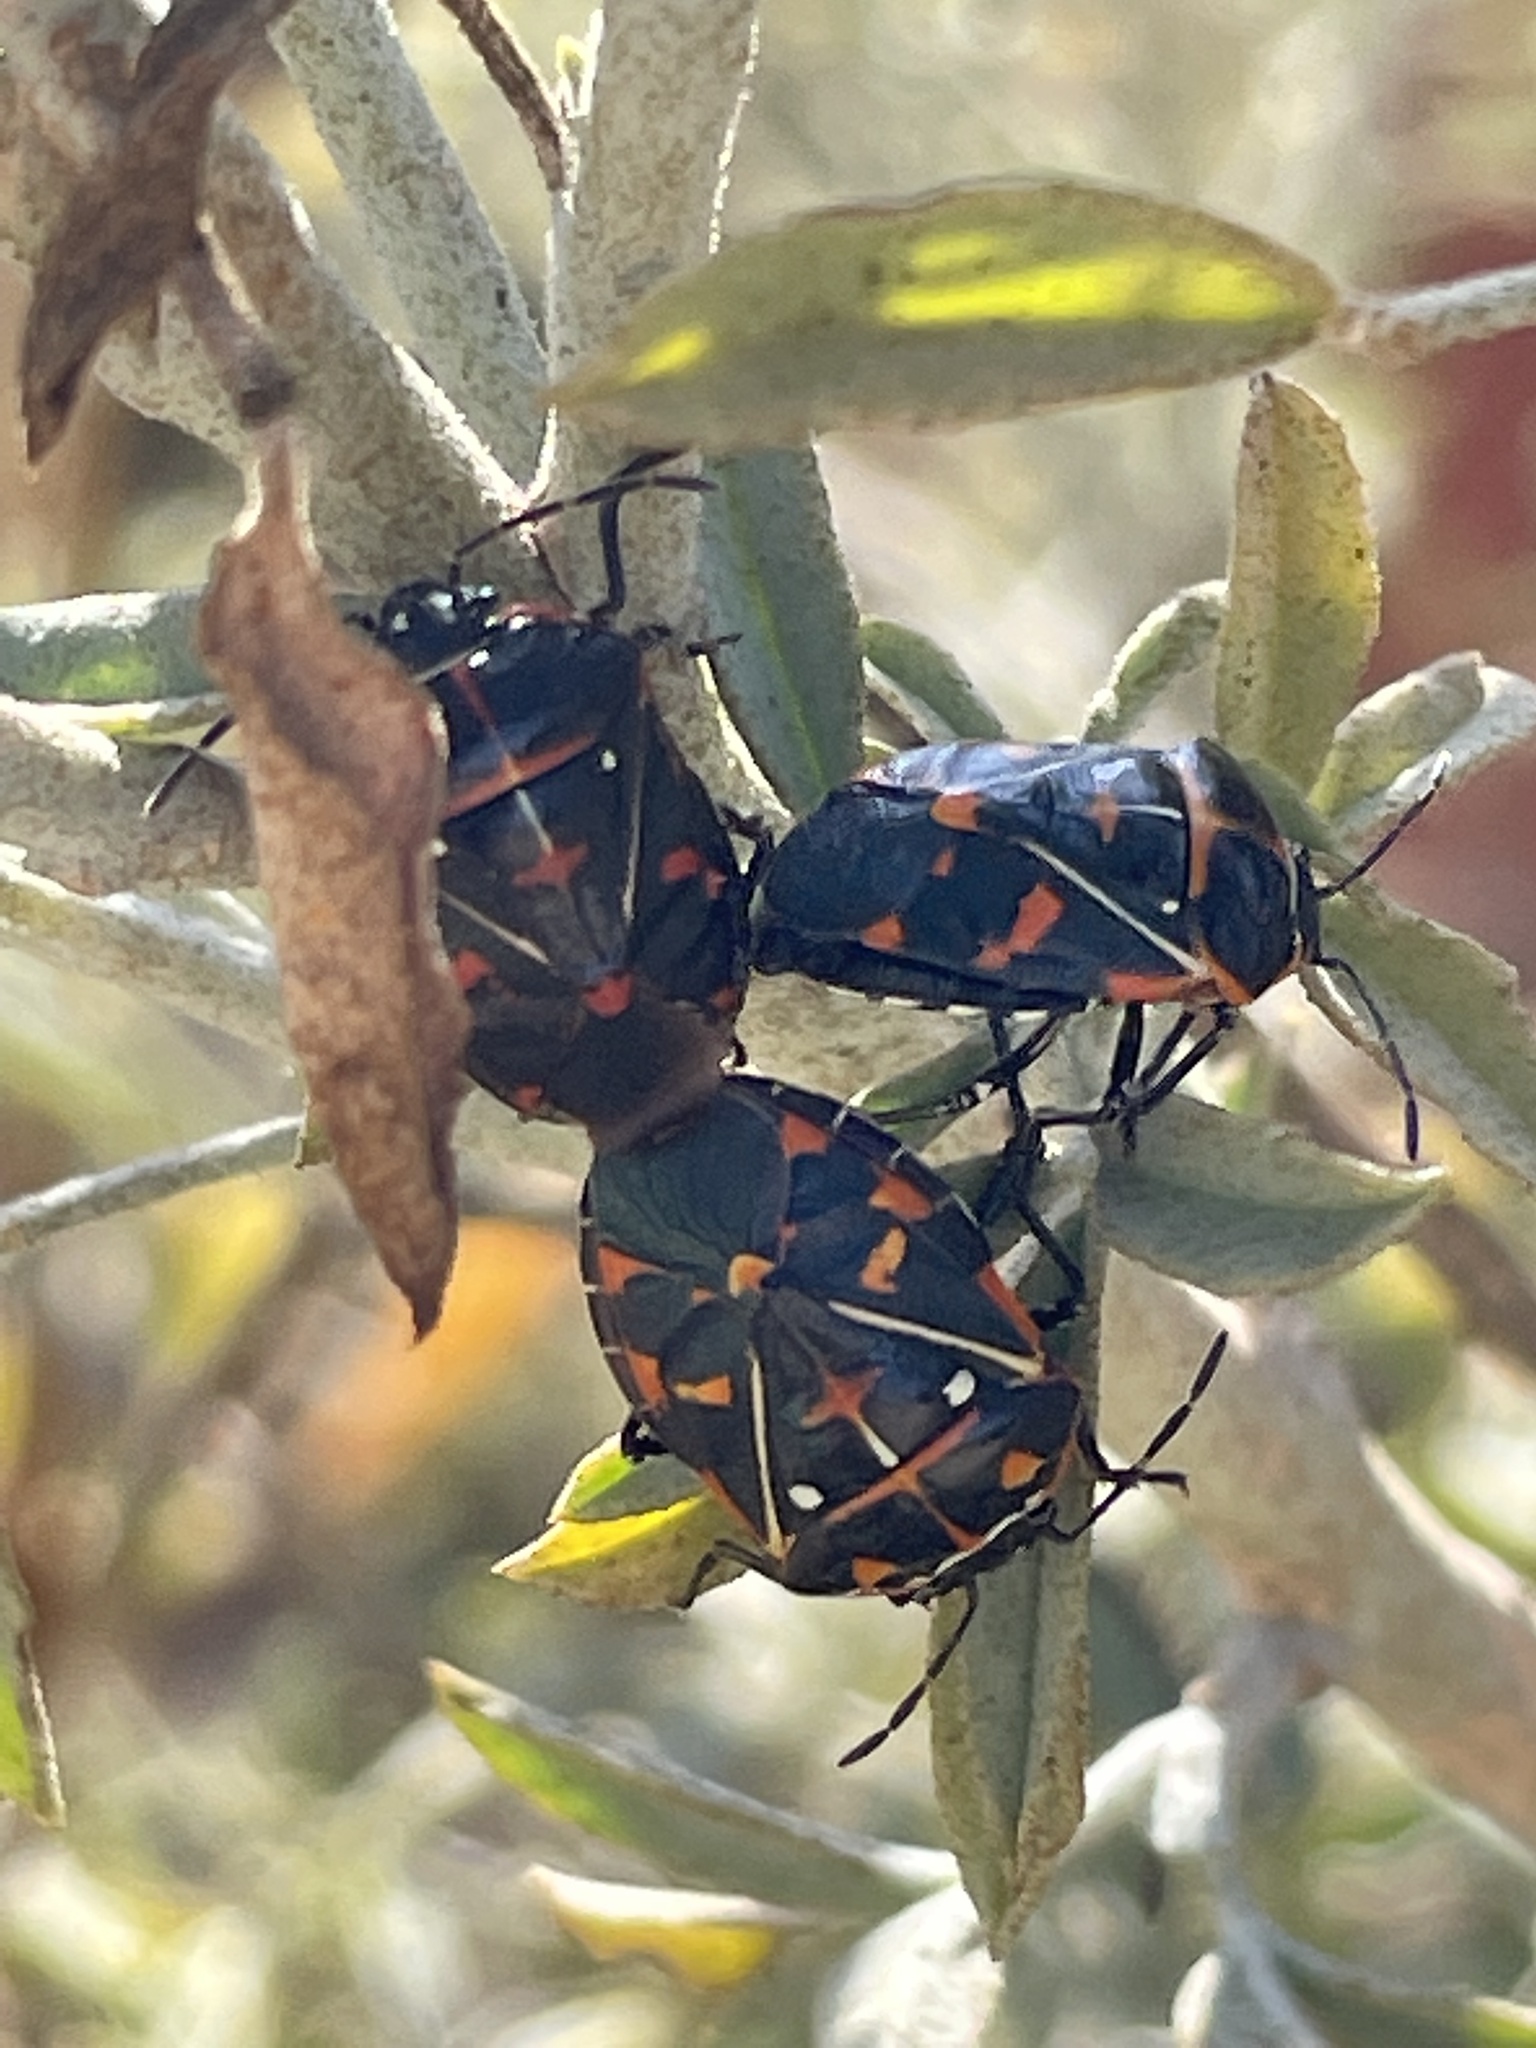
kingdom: Animalia
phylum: Arthropoda
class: Insecta
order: Hemiptera
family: Pentatomidae
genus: Murgantia
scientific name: Murgantia histrionica
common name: Harlequin bug
